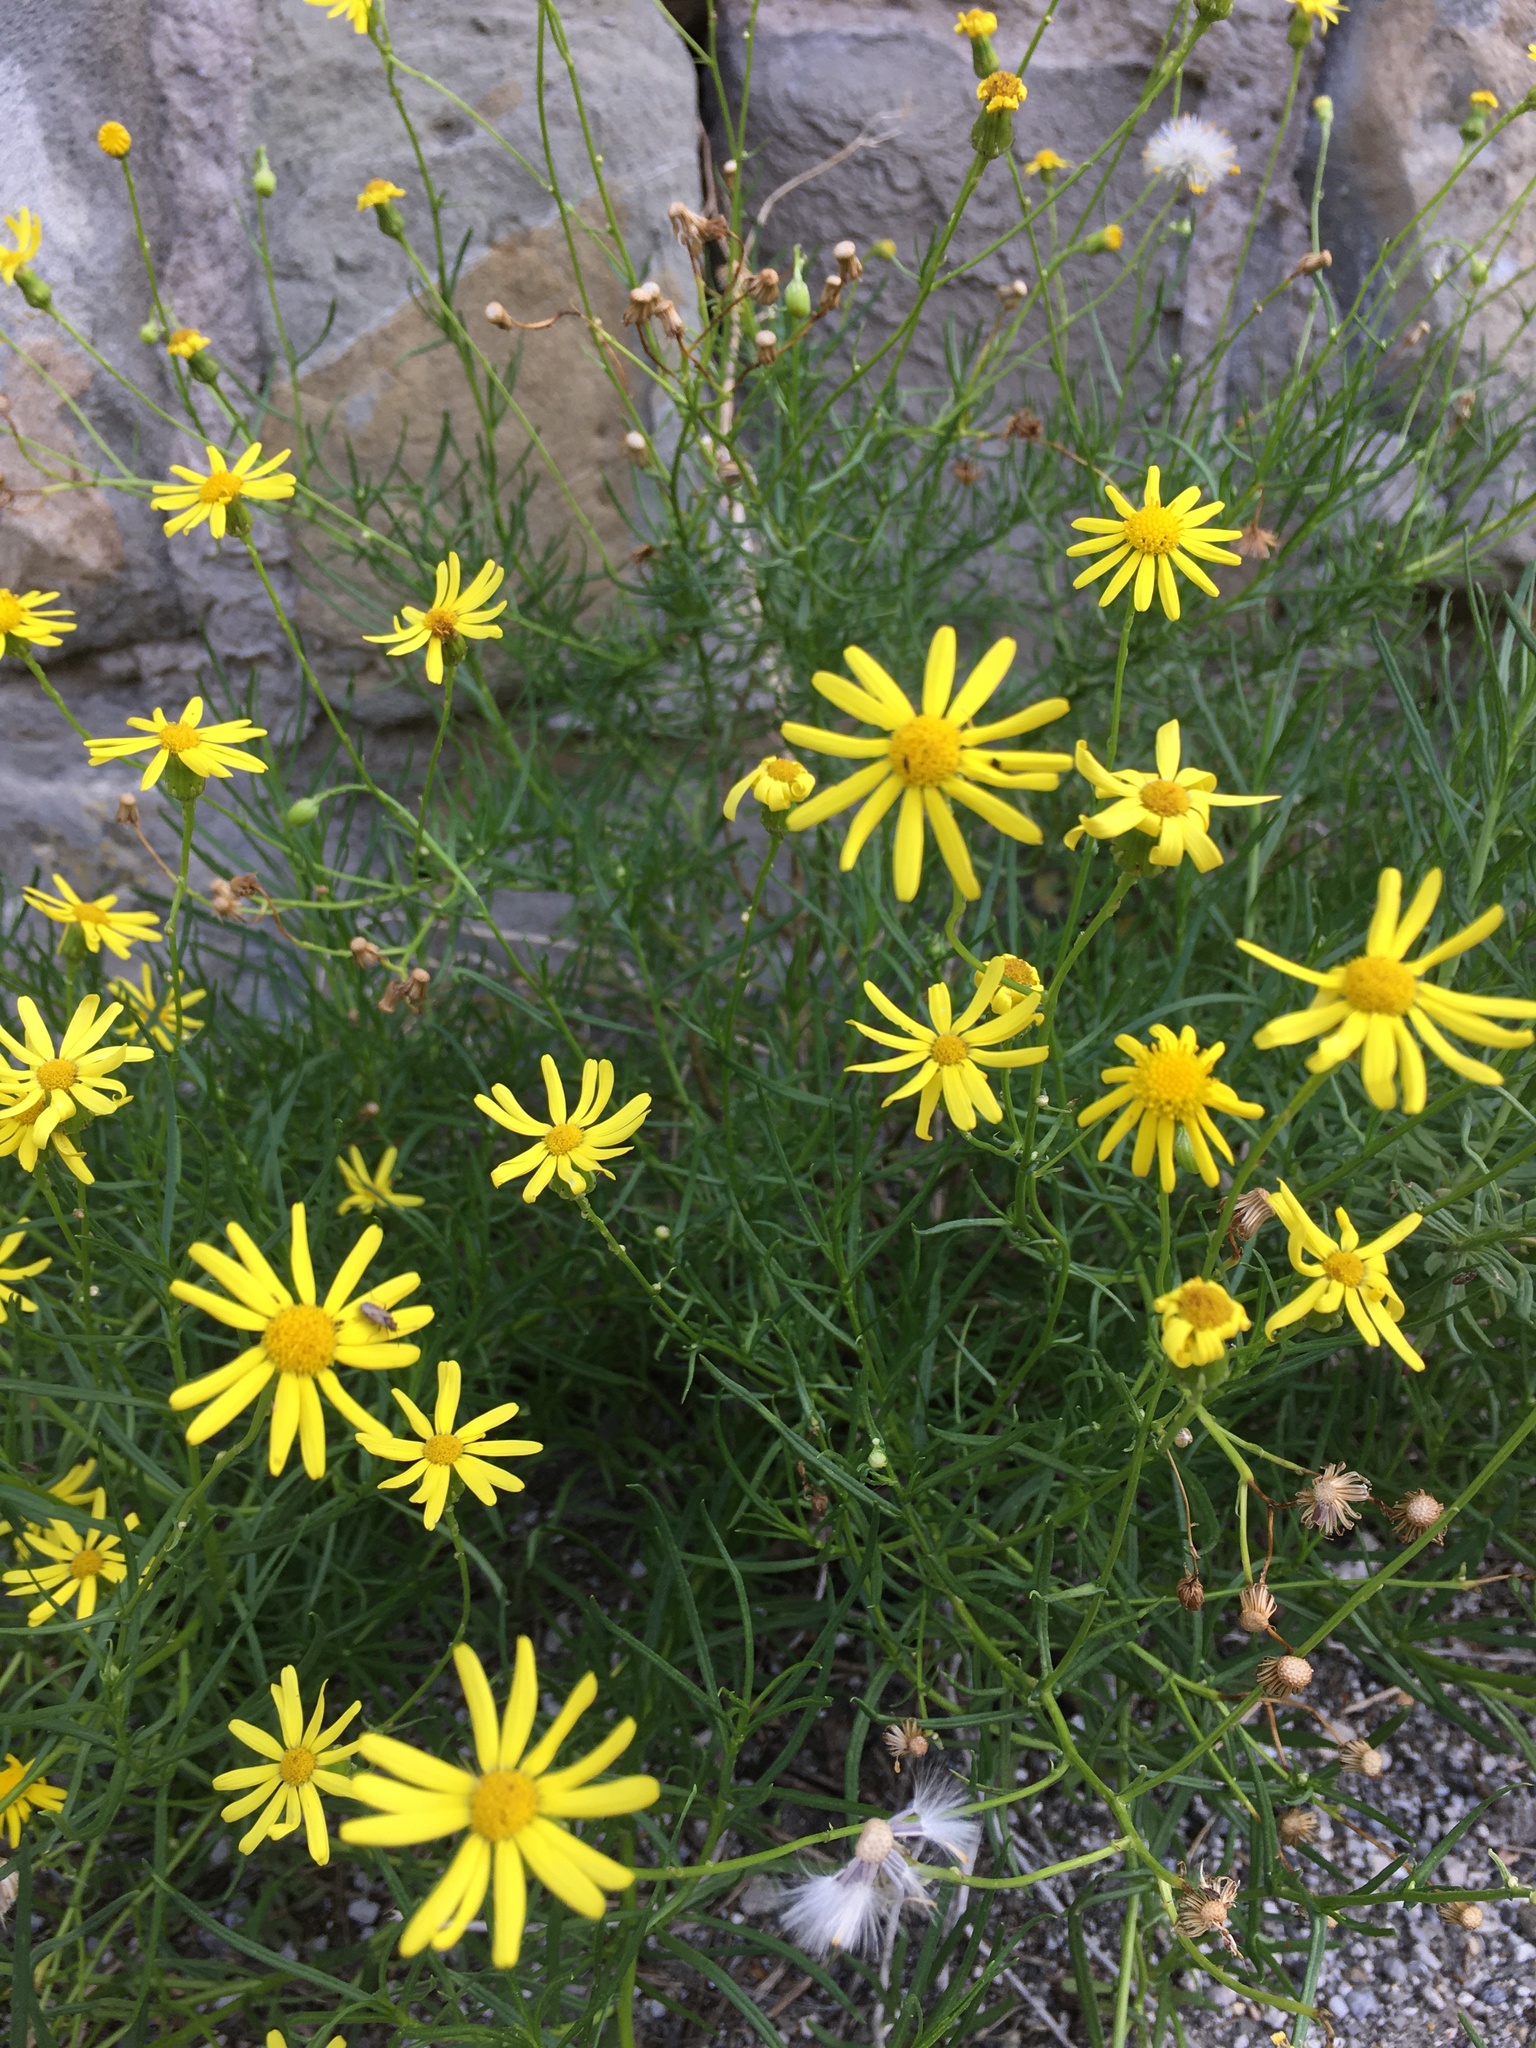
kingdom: Plantae
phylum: Tracheophyta
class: Magnoliopsida
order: Asterales
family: Asteraceae
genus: Senecio
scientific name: Senecio inaequidens
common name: Narrow-leaved ragwort
